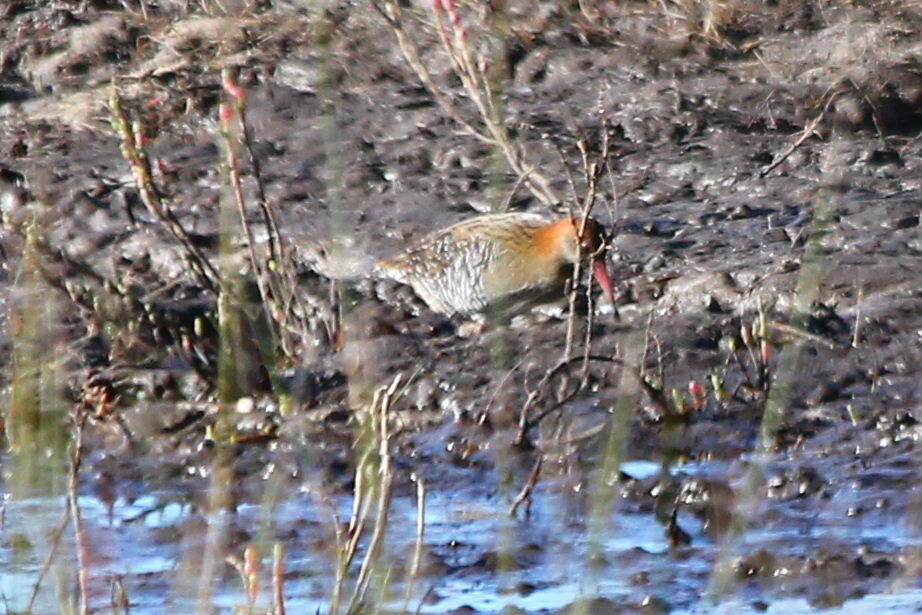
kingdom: Animalia
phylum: Chordata
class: Aves
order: Gruiformes
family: Rallidae
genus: Lewinia
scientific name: Lewinia pectoralis
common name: Lewin's rail
